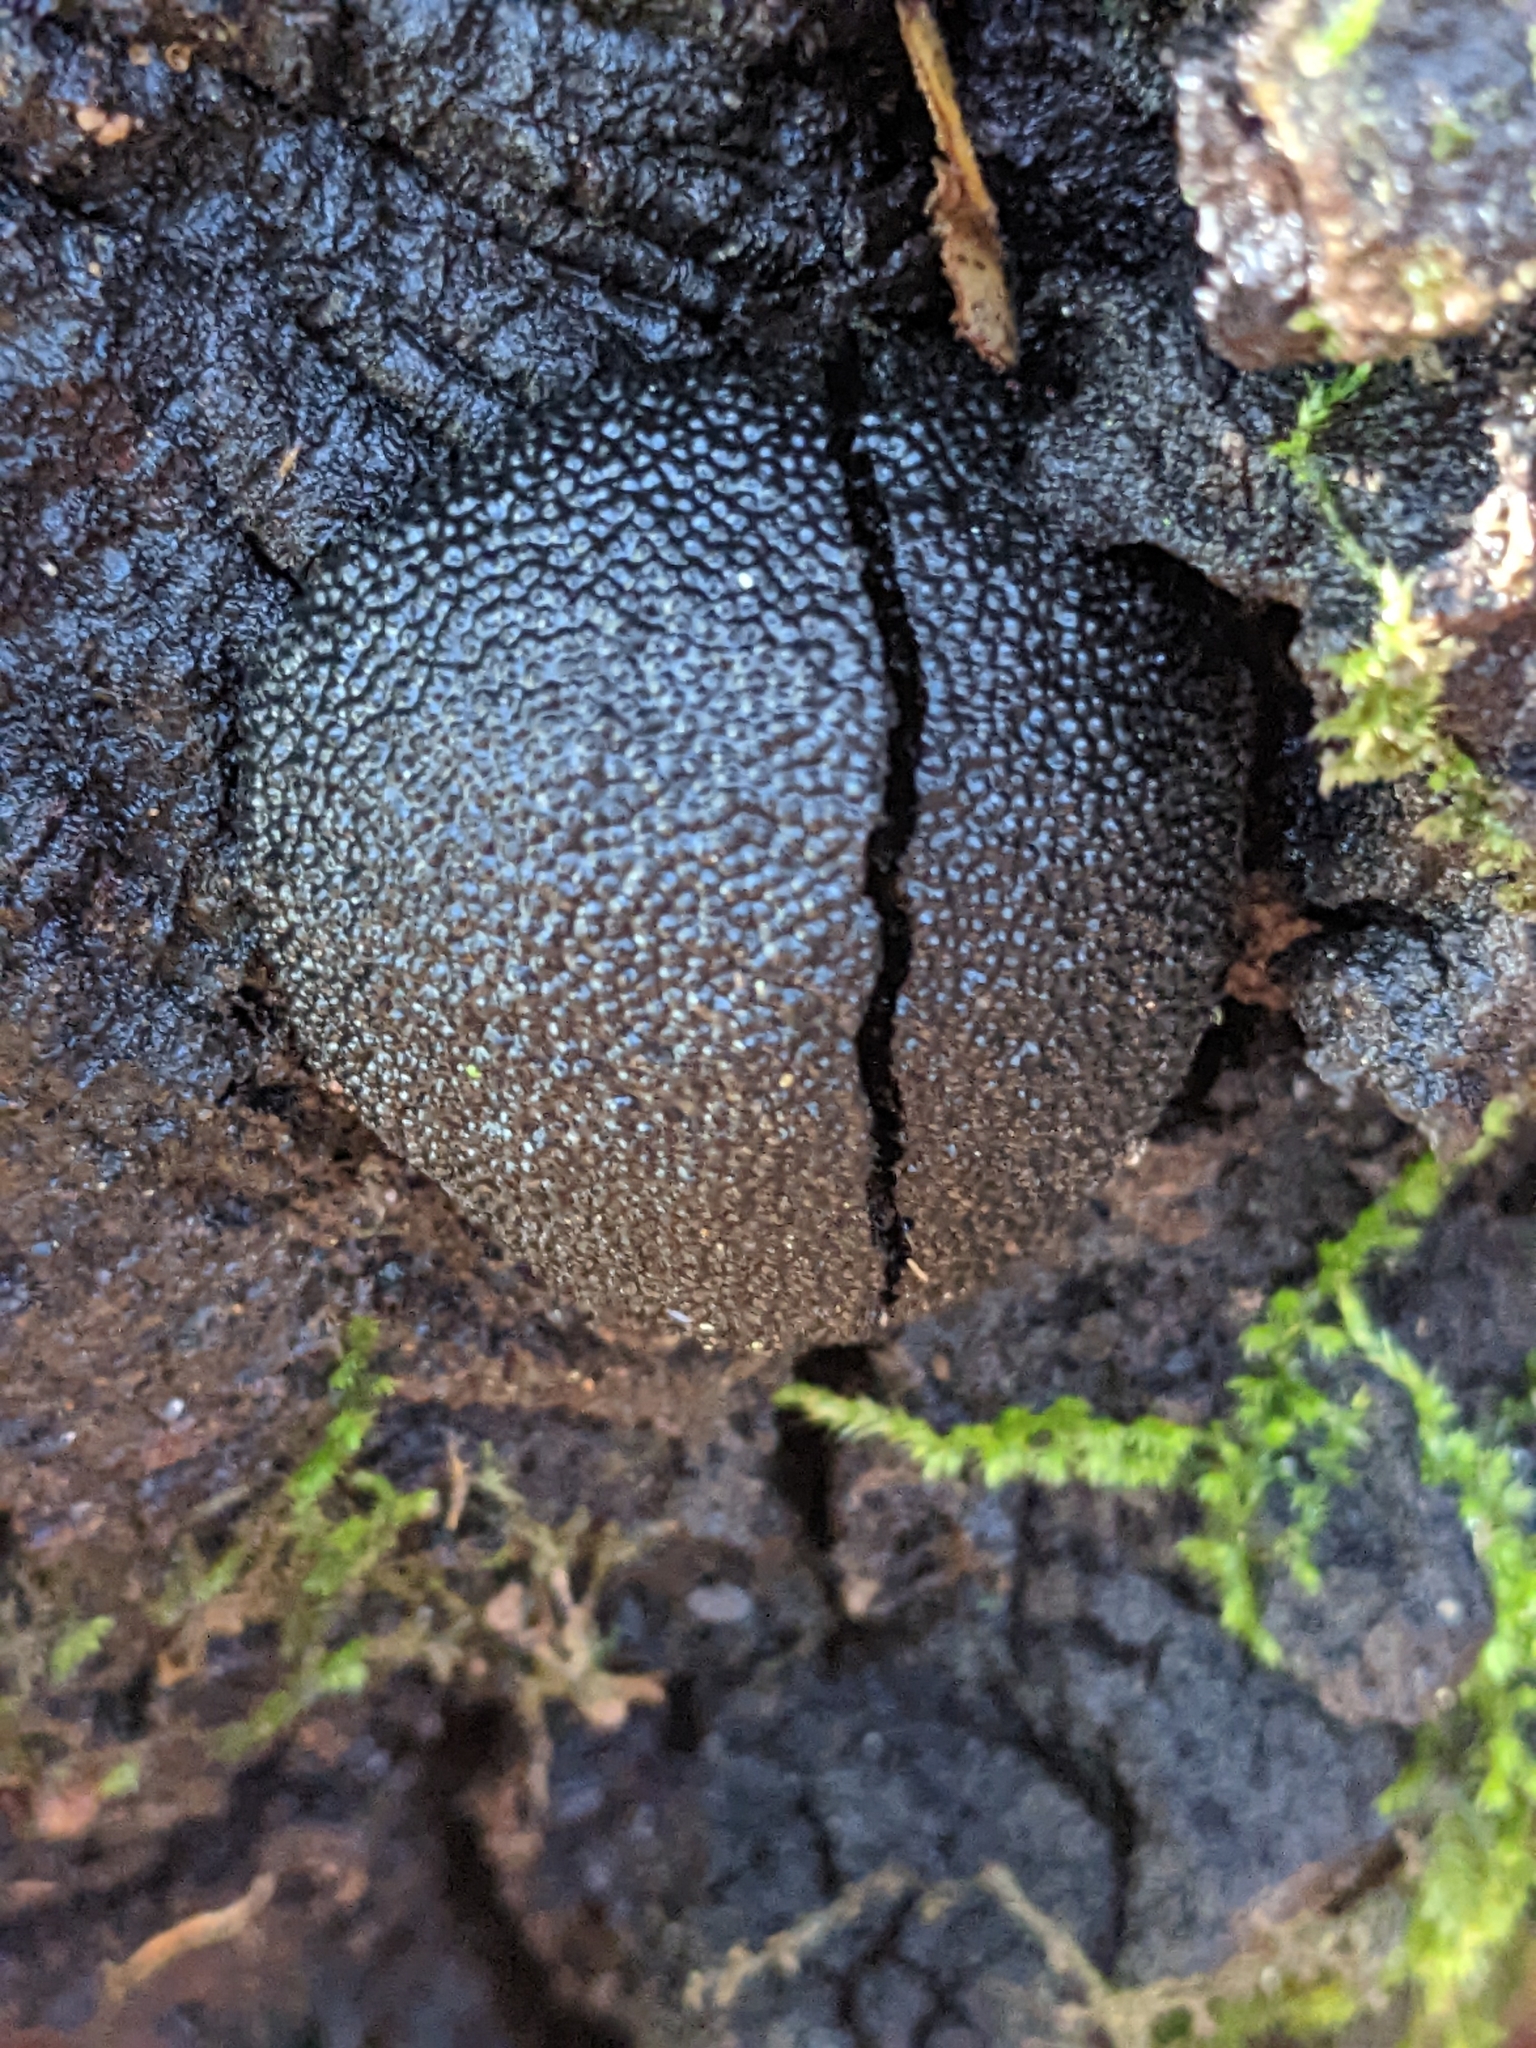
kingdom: Fungi
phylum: Ascomycota
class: Sordariomycetes
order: Xylariales
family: Hypoxylaceae
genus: Annulohypoxylon
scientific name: Annulohypoxylon thouarsianum
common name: Cramp balls
